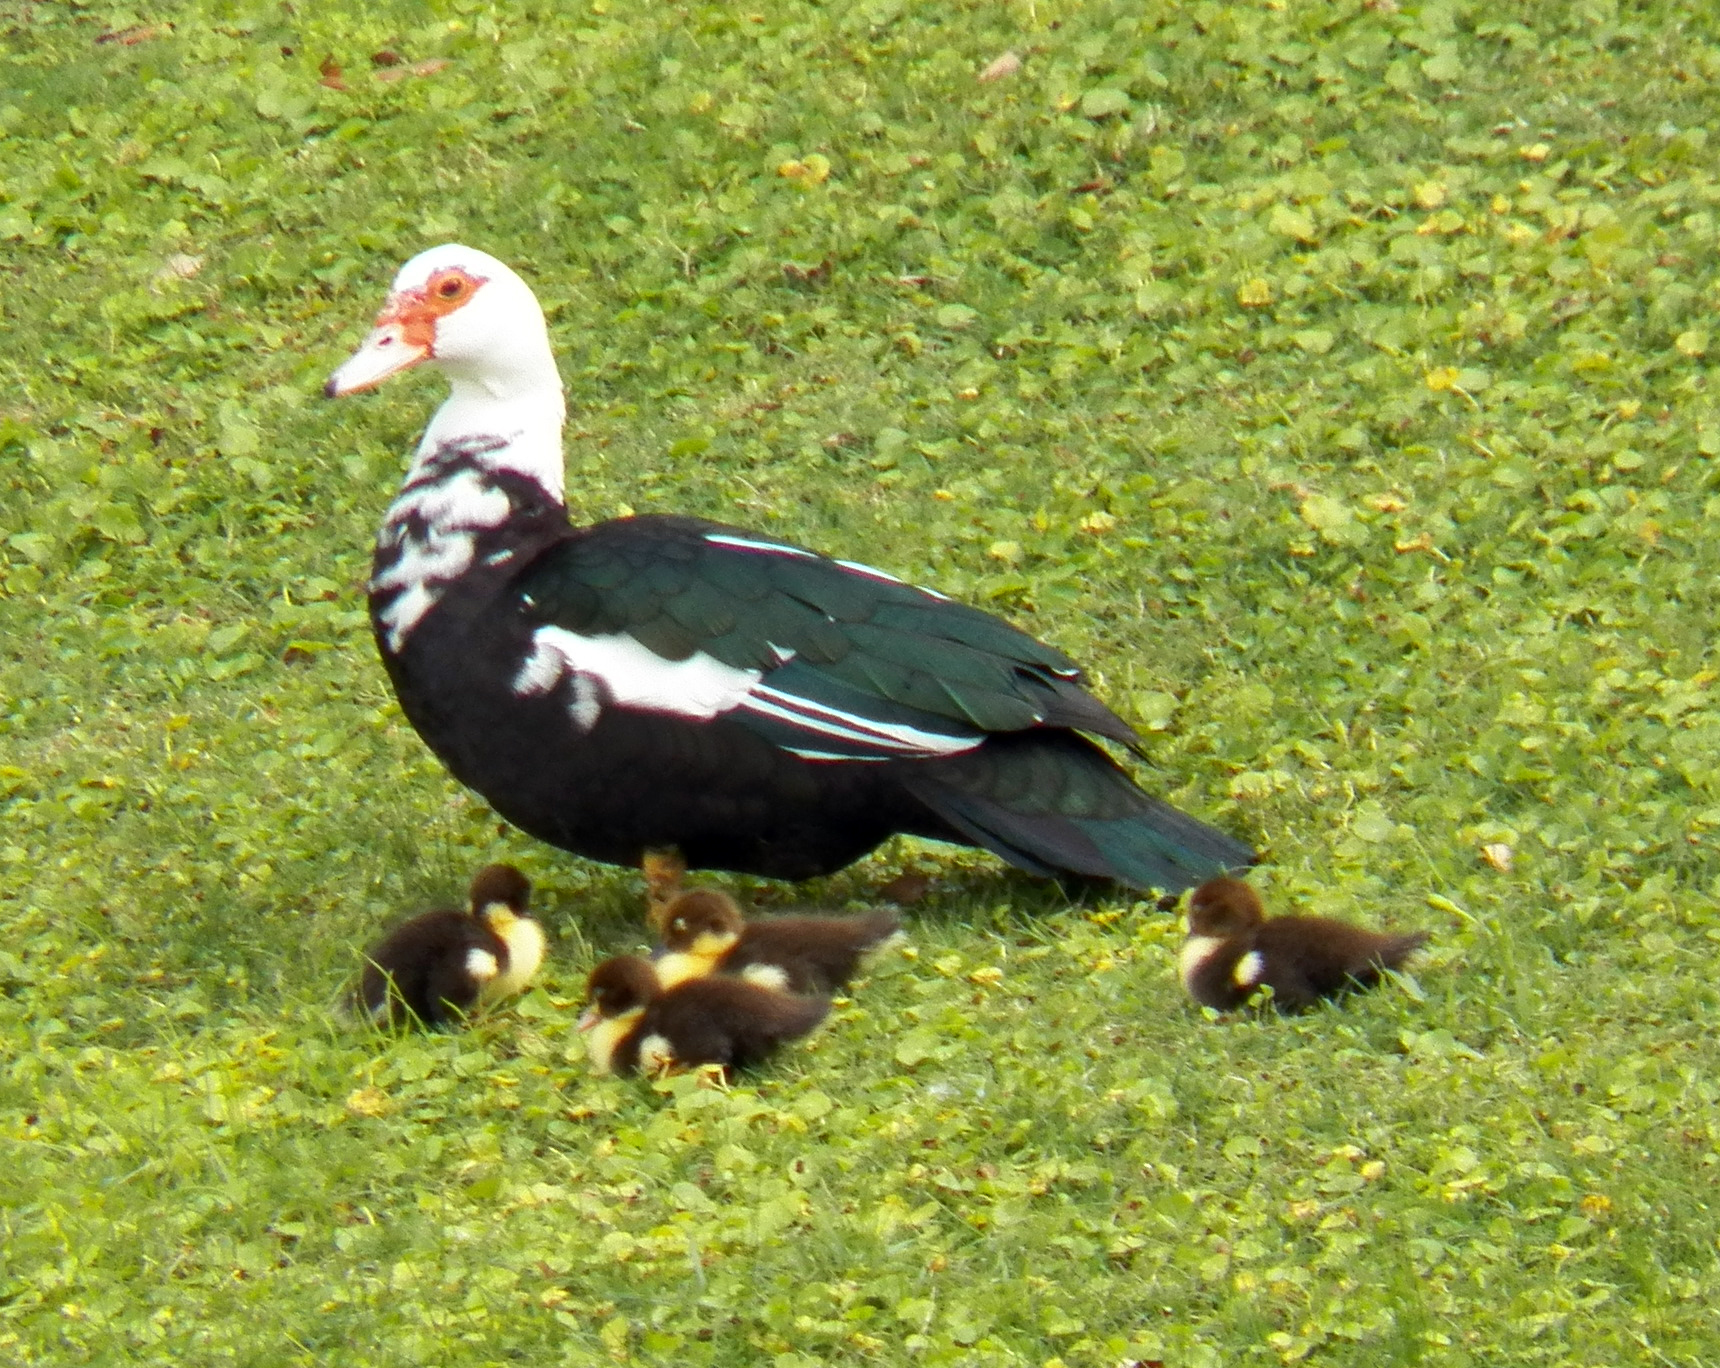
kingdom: Animalia
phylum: Chordata
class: Aves
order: Anseriformes
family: Anatidae
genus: Cairina
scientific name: Cairina moschata
